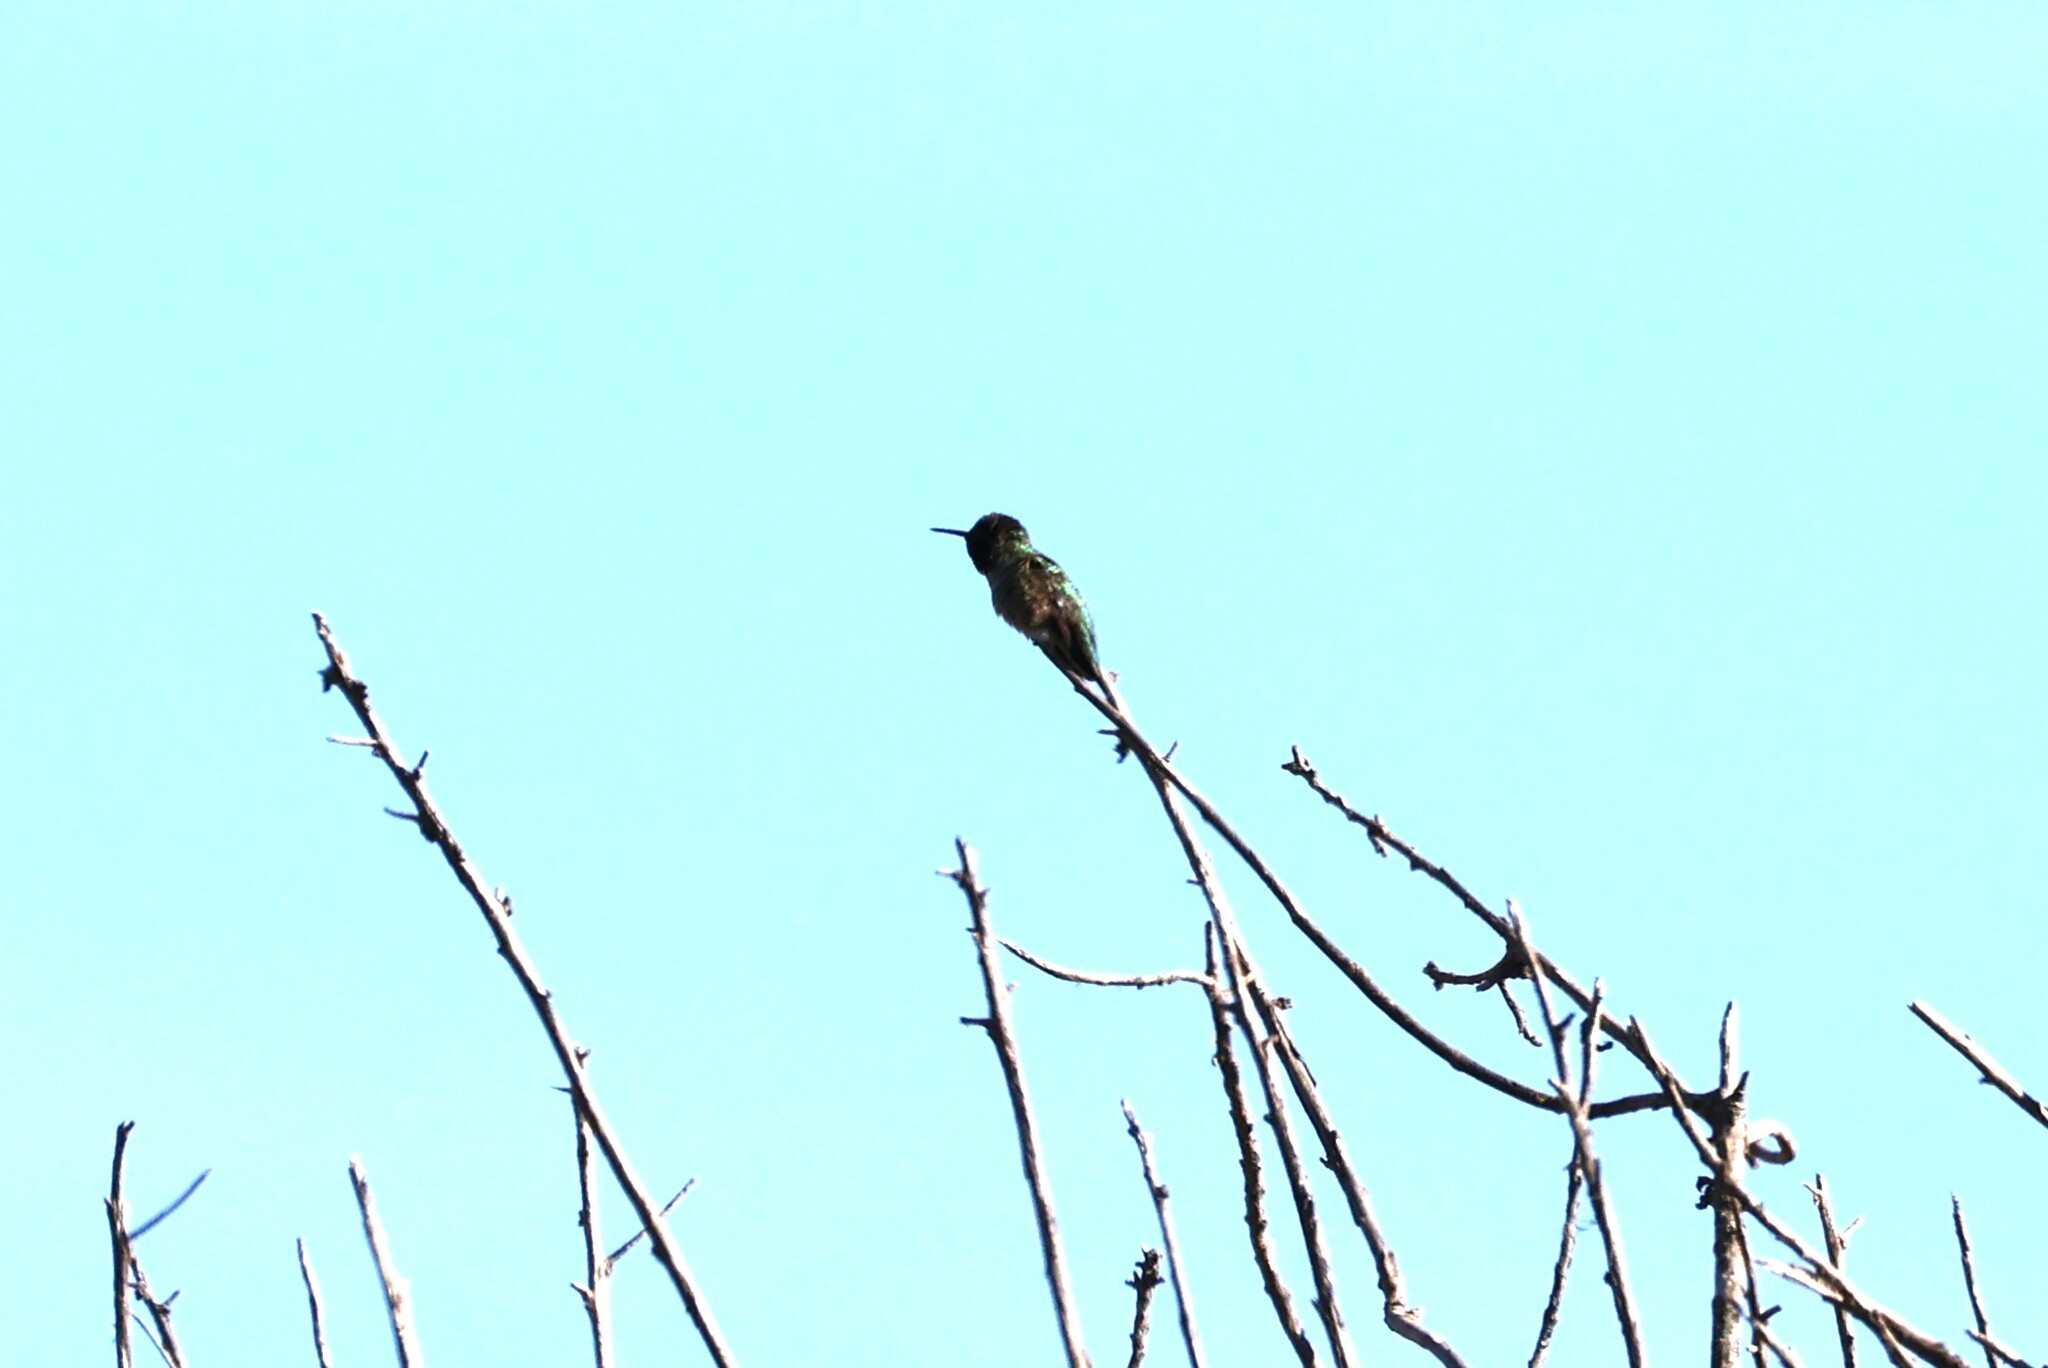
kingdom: Animalia
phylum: Chordata
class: Aves
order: Apodiformes
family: Trochilidae
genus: Calypte
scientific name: Calypte anna
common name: Anna's hummingbird
